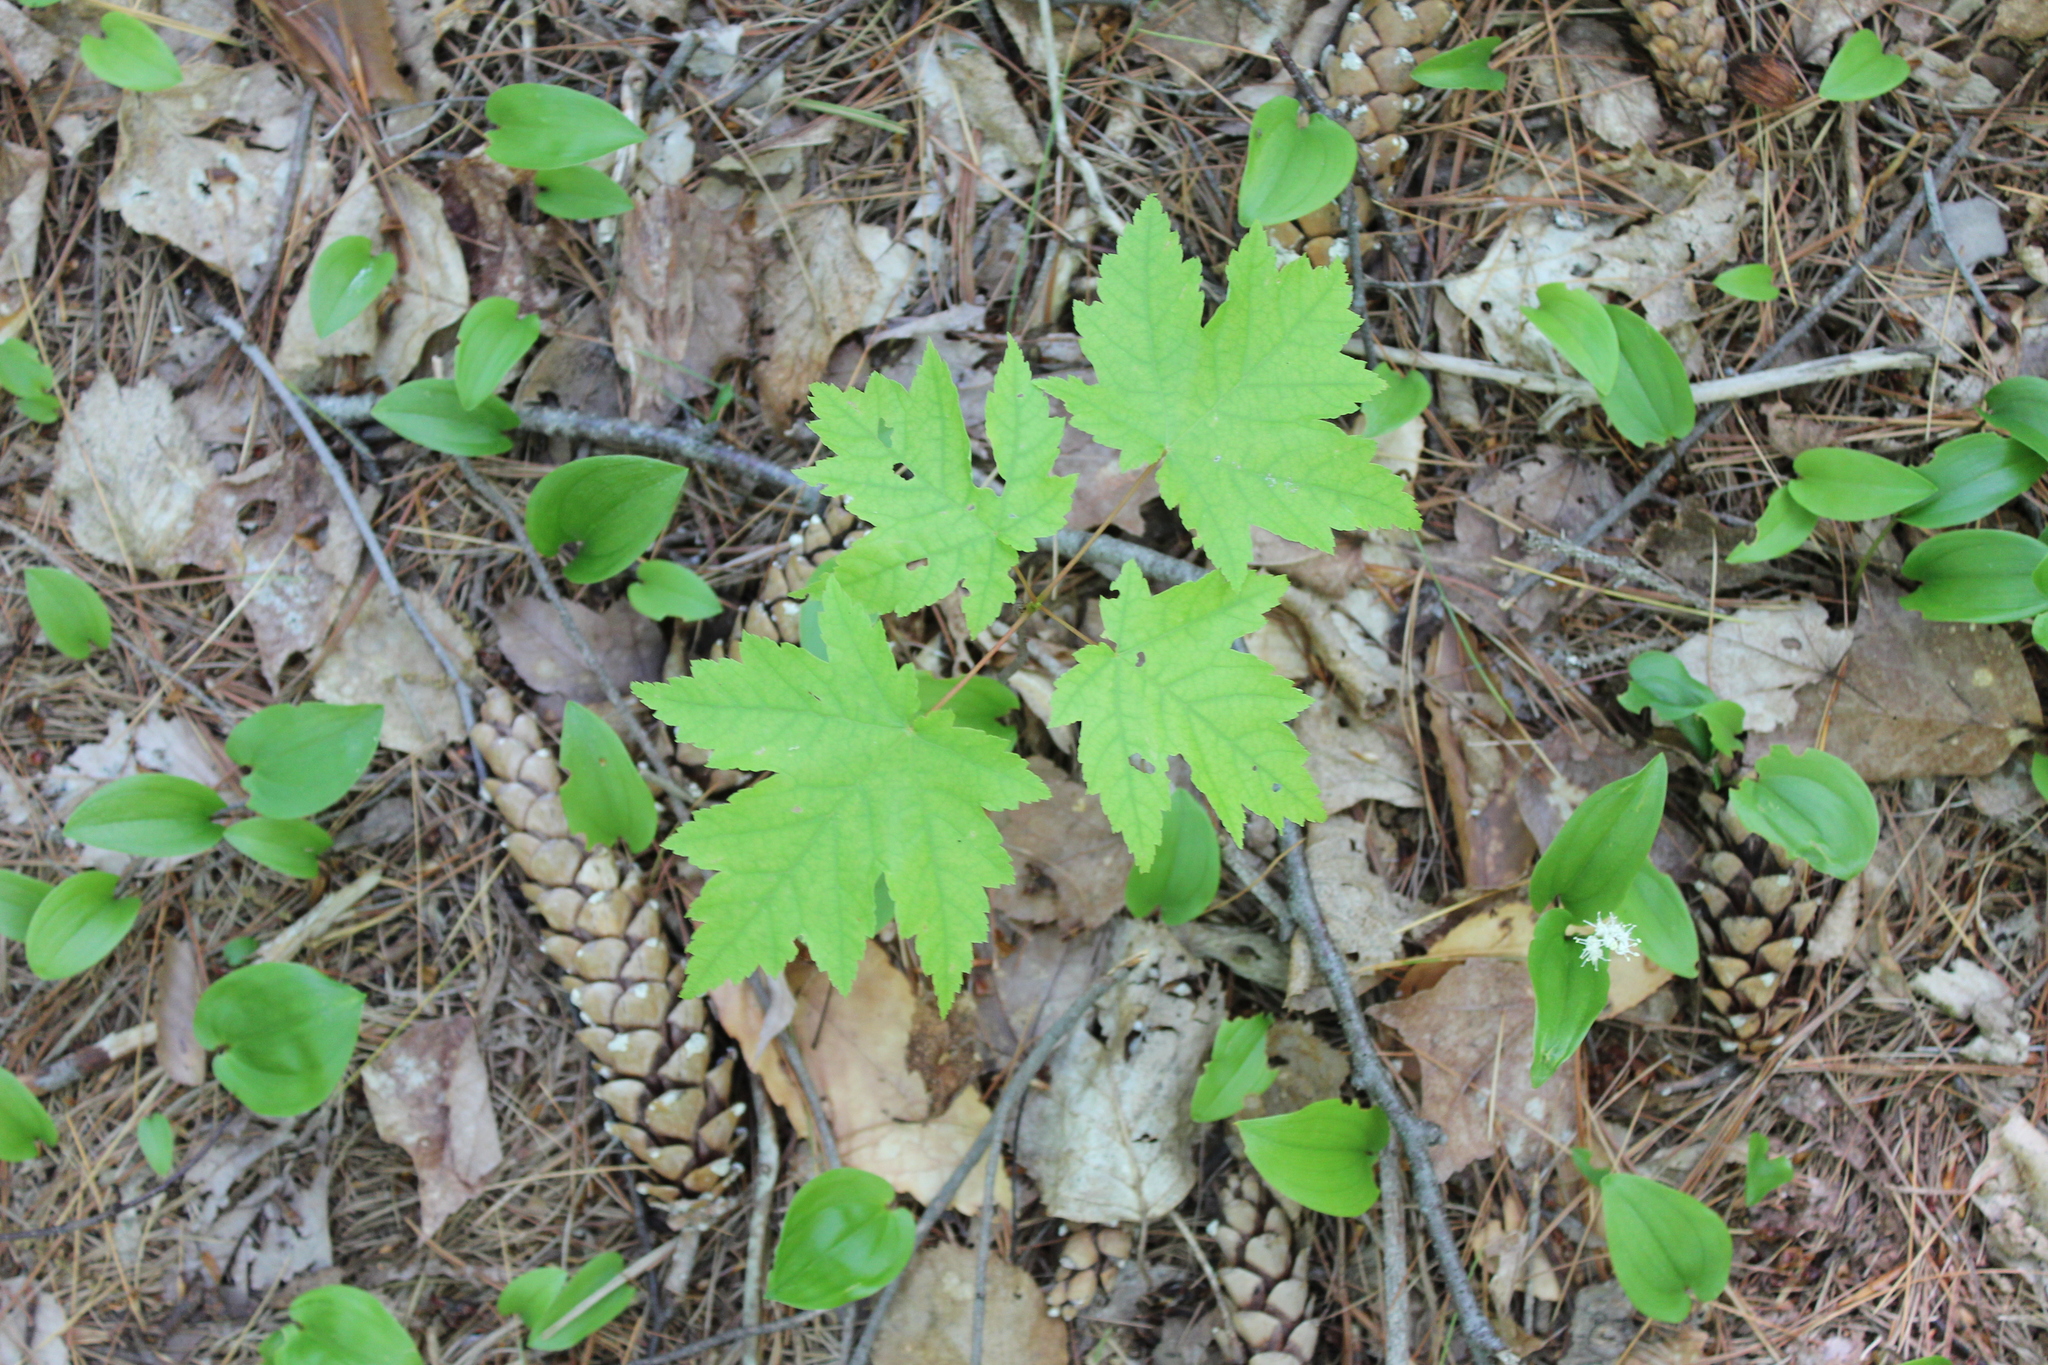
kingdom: Plantae
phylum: Tracheophyta
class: Magnoliopsida
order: Sapindales
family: Sapindaceae
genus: Acer
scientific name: Acer rubrum
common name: Red maple
